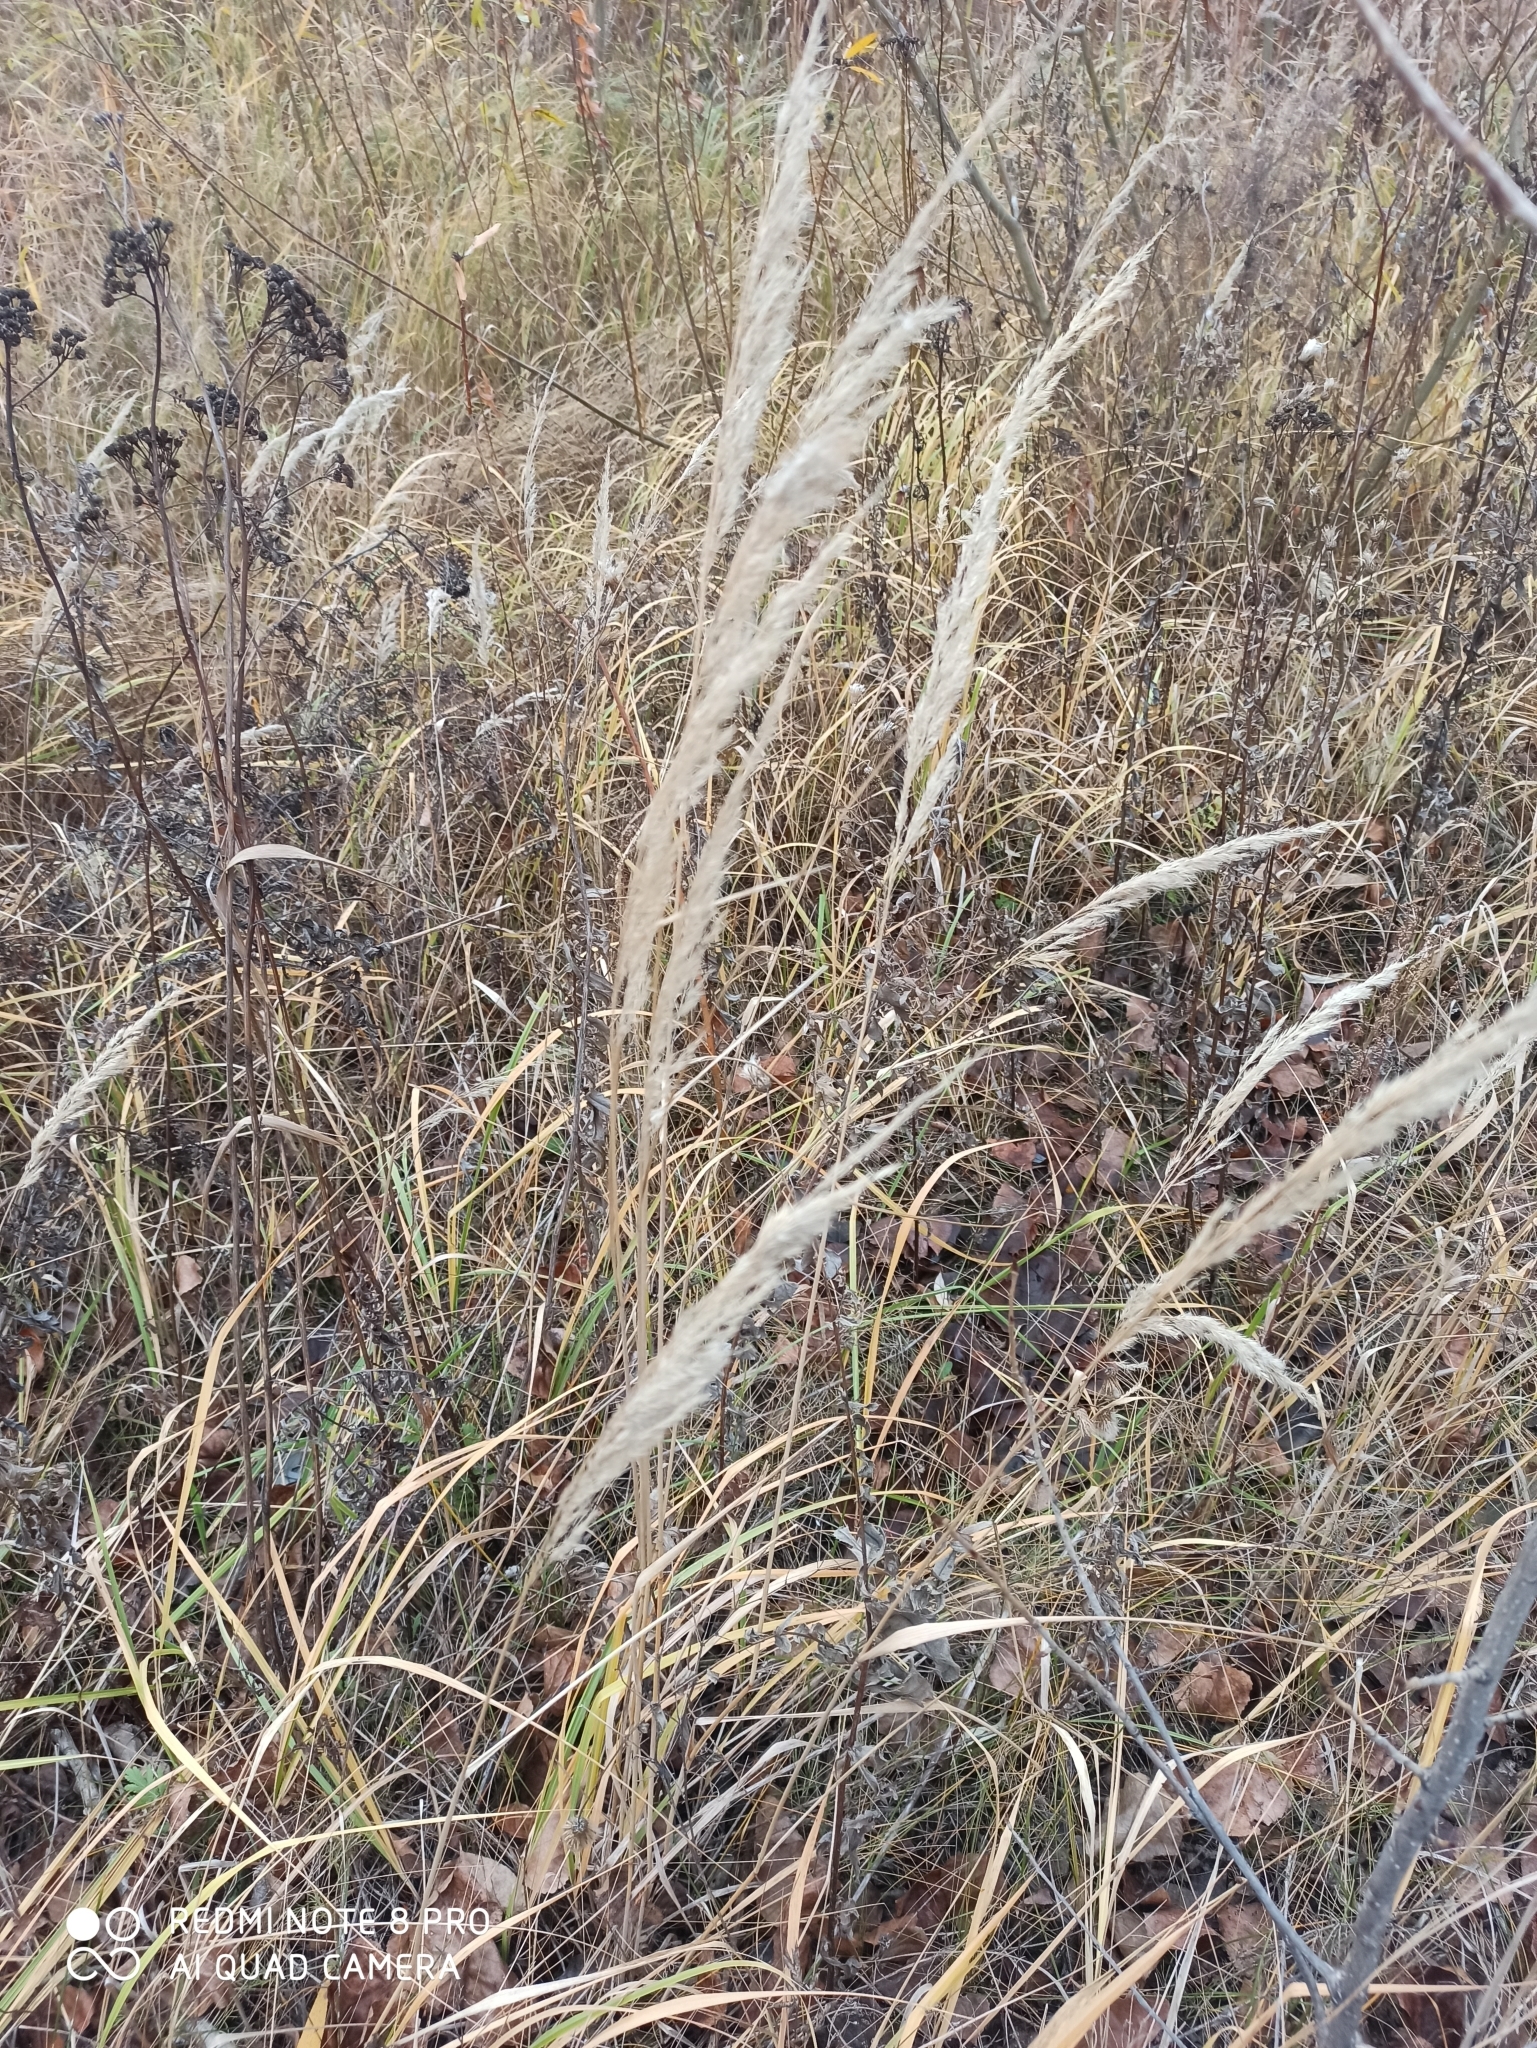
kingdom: Plantae
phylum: Tracheophyta
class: Liliopsida
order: Poales
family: Poaceae
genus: Calamagrostis
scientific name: Calamagrostis epigejos
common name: Wood small-reed
